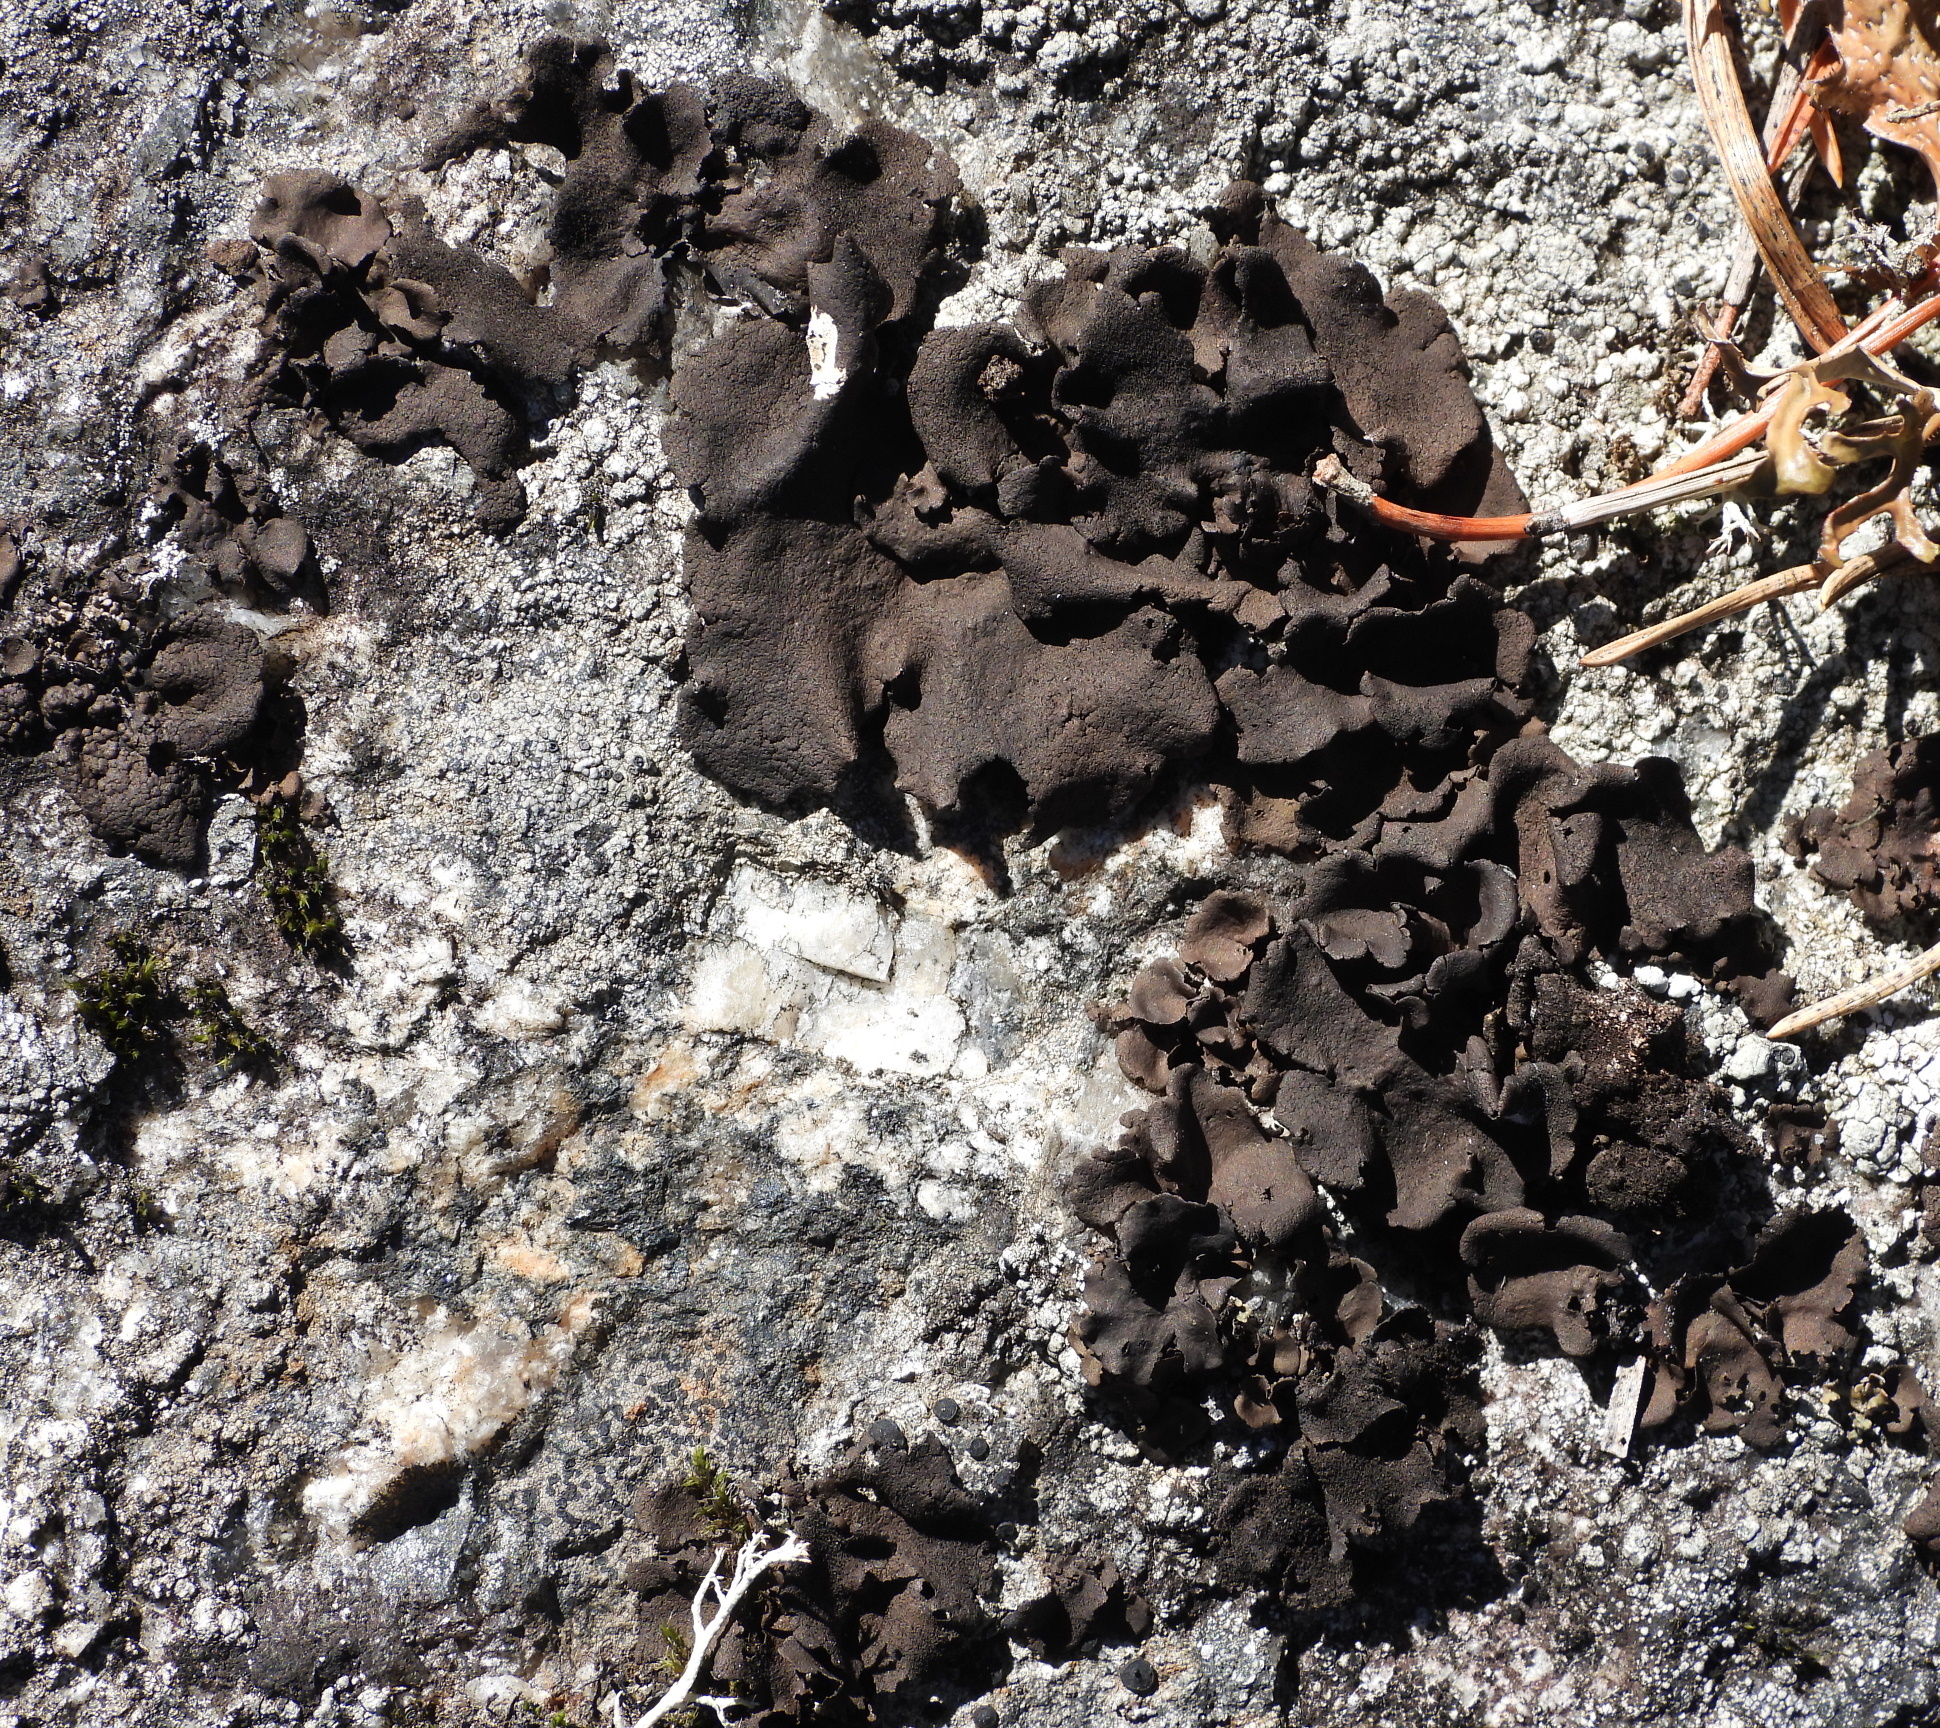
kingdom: Fungi
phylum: Ascomycota
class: Lecanoromycetes
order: Umbilicariales
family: Umbilicariaceae
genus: Umbilicaria
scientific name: Umbilicaria polyphylla
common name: Petalled rocktripe lichen
